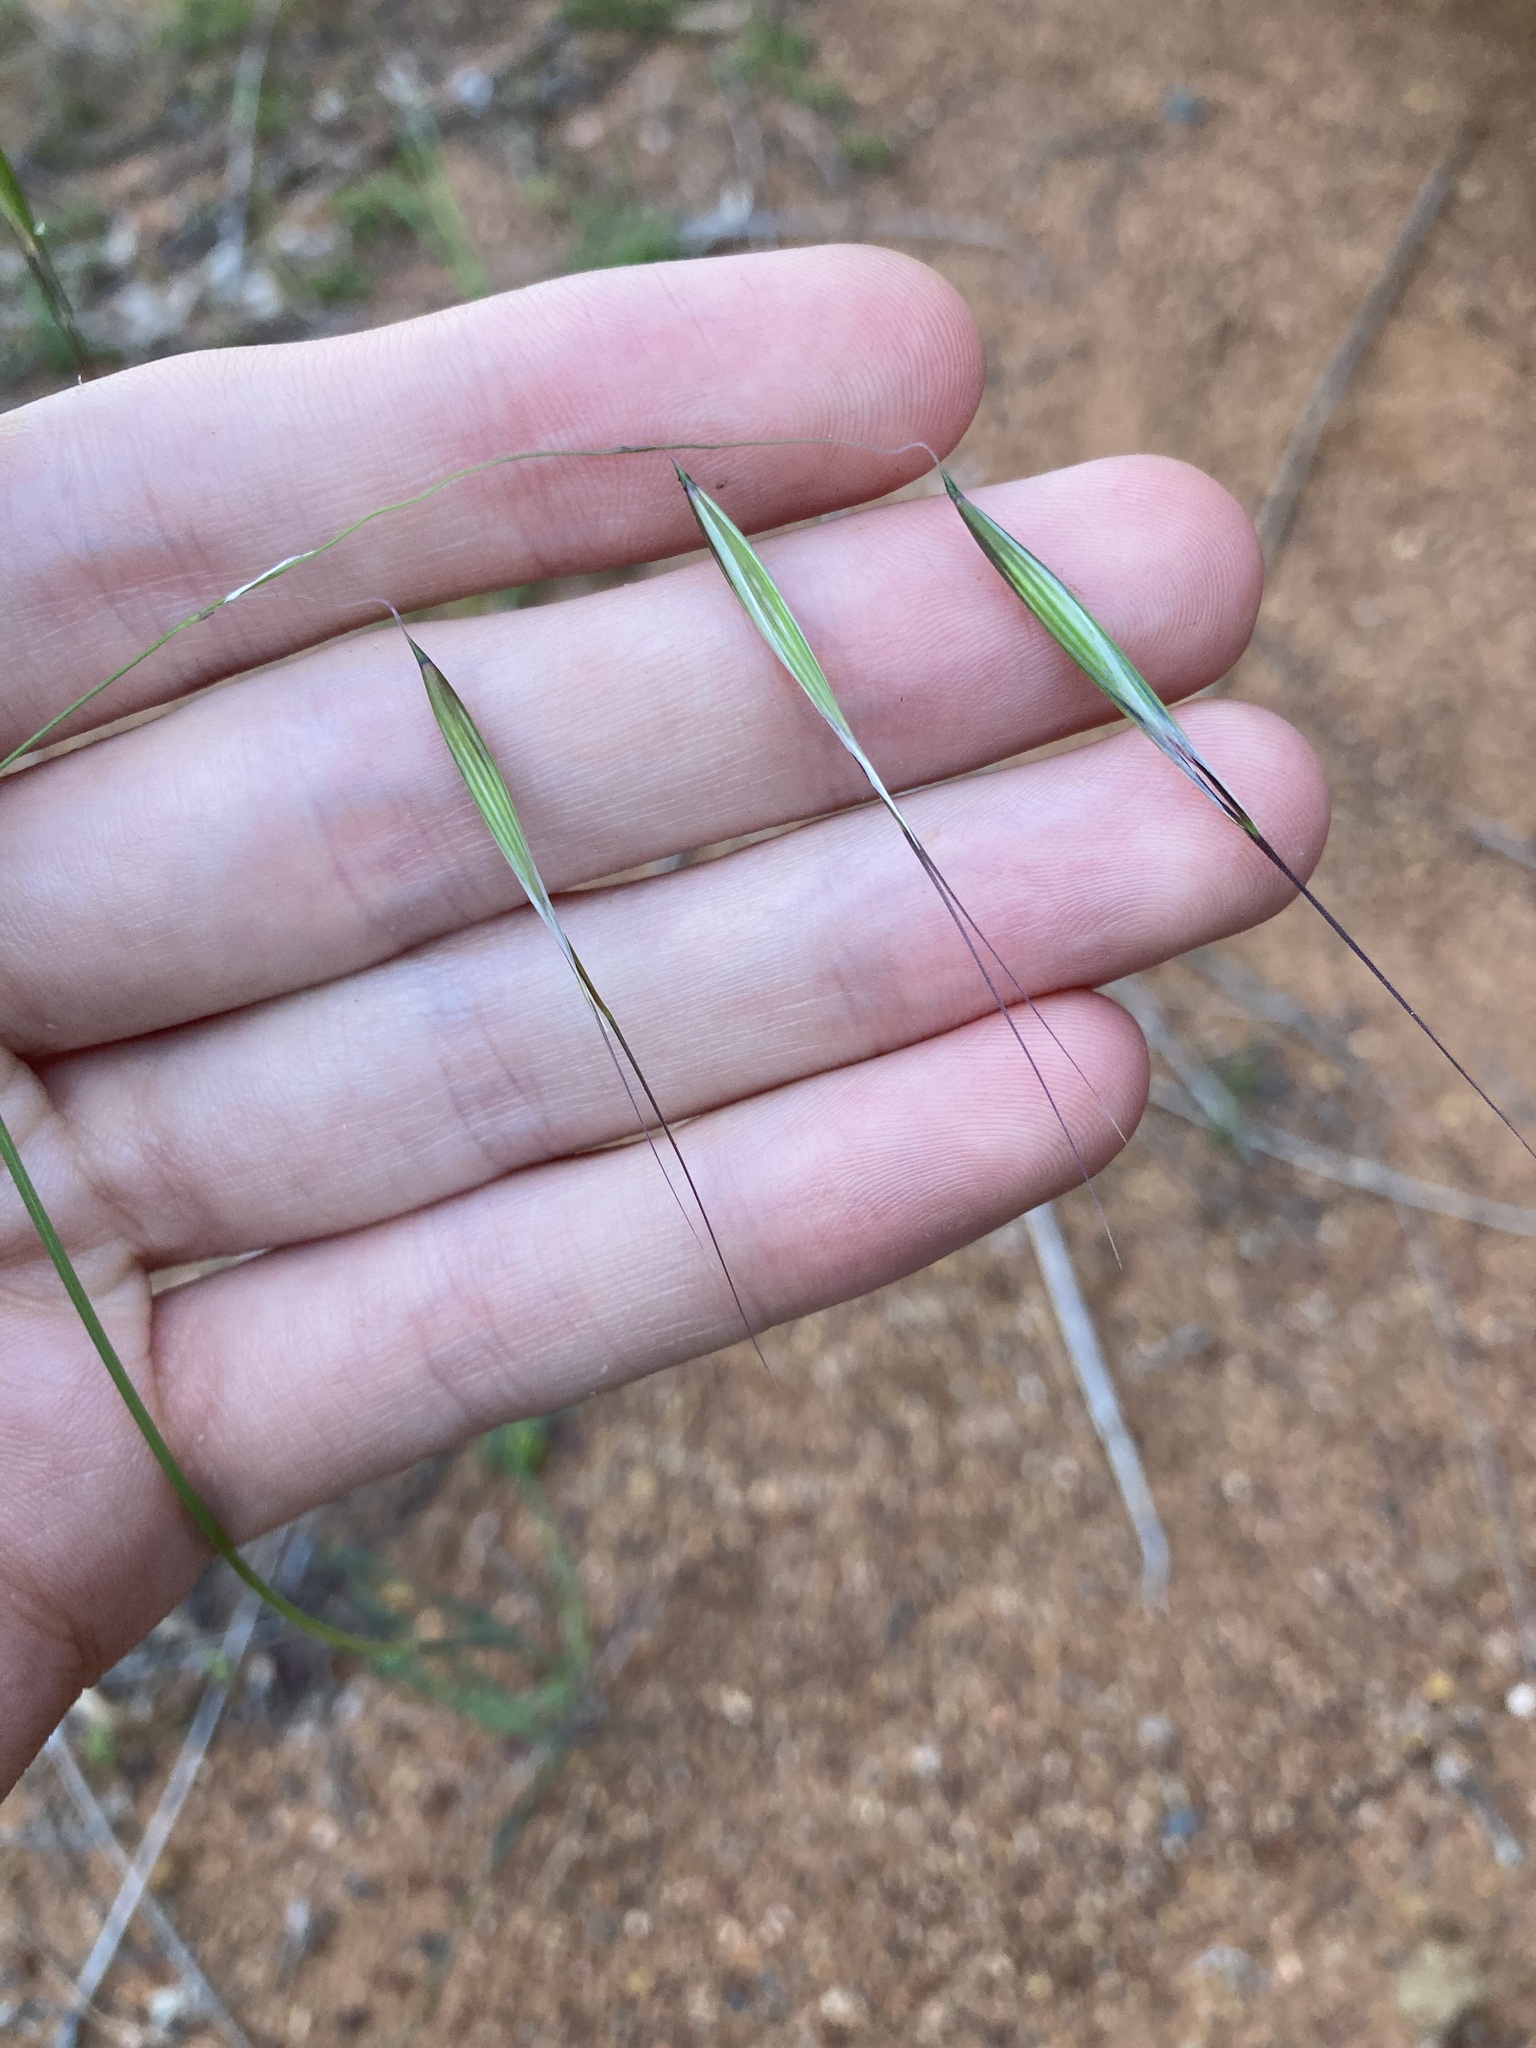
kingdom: Plantae
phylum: Tracheophyta
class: Liliopsida
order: Poales
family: Poaceae
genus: Avena
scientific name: Avena barbata
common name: Slender oat
